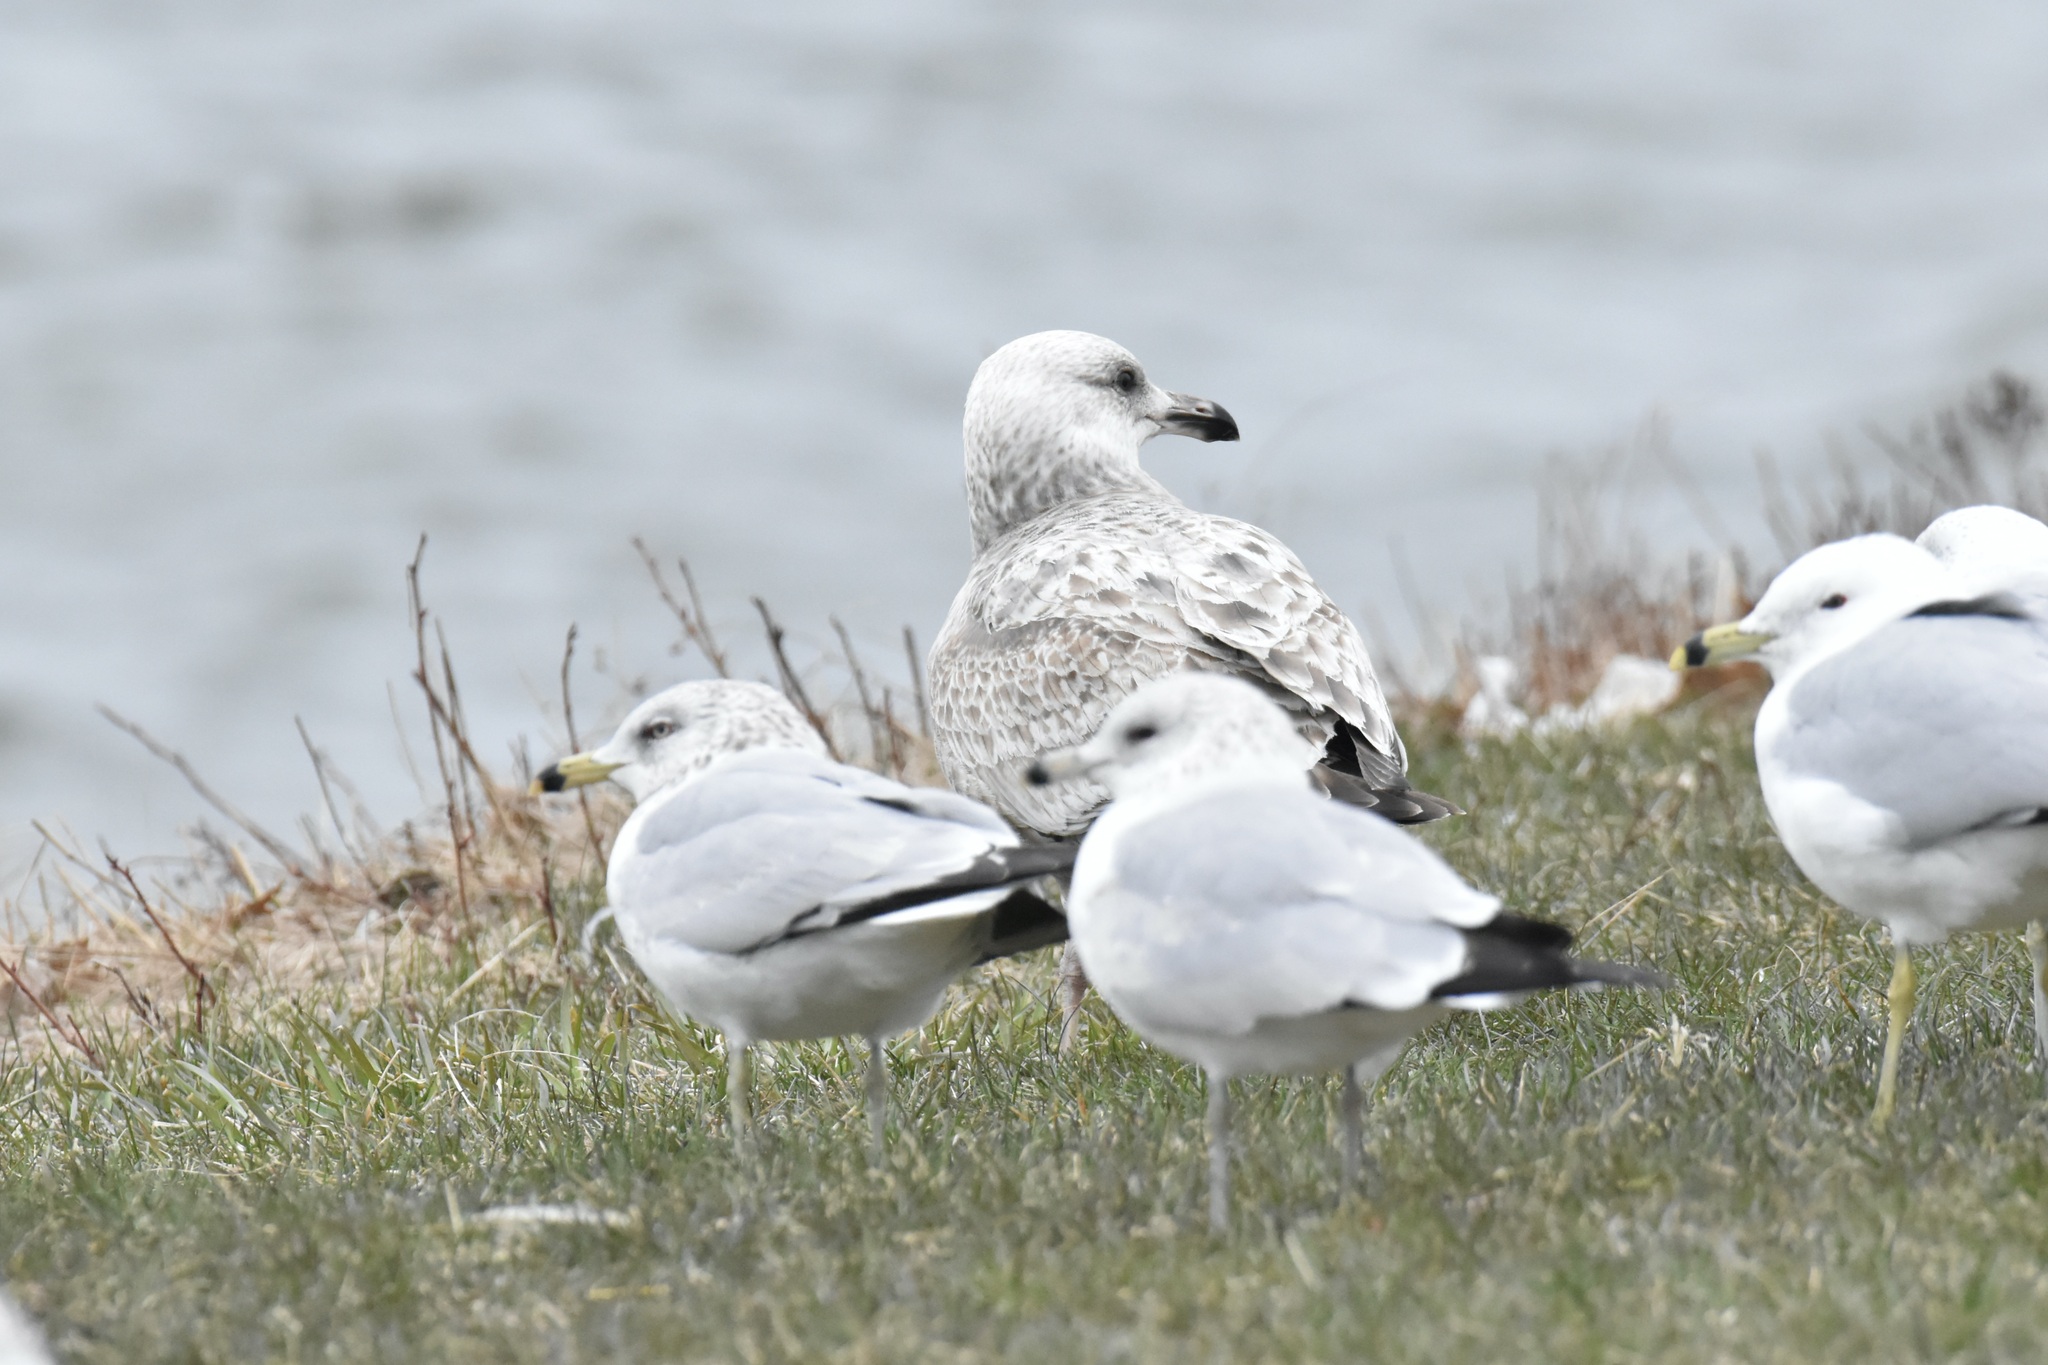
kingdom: Animalia
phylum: Chordata
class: Aves
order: Charadriiformes
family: Laridae
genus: Larus
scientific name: Larus argentatus
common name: Herring gull
